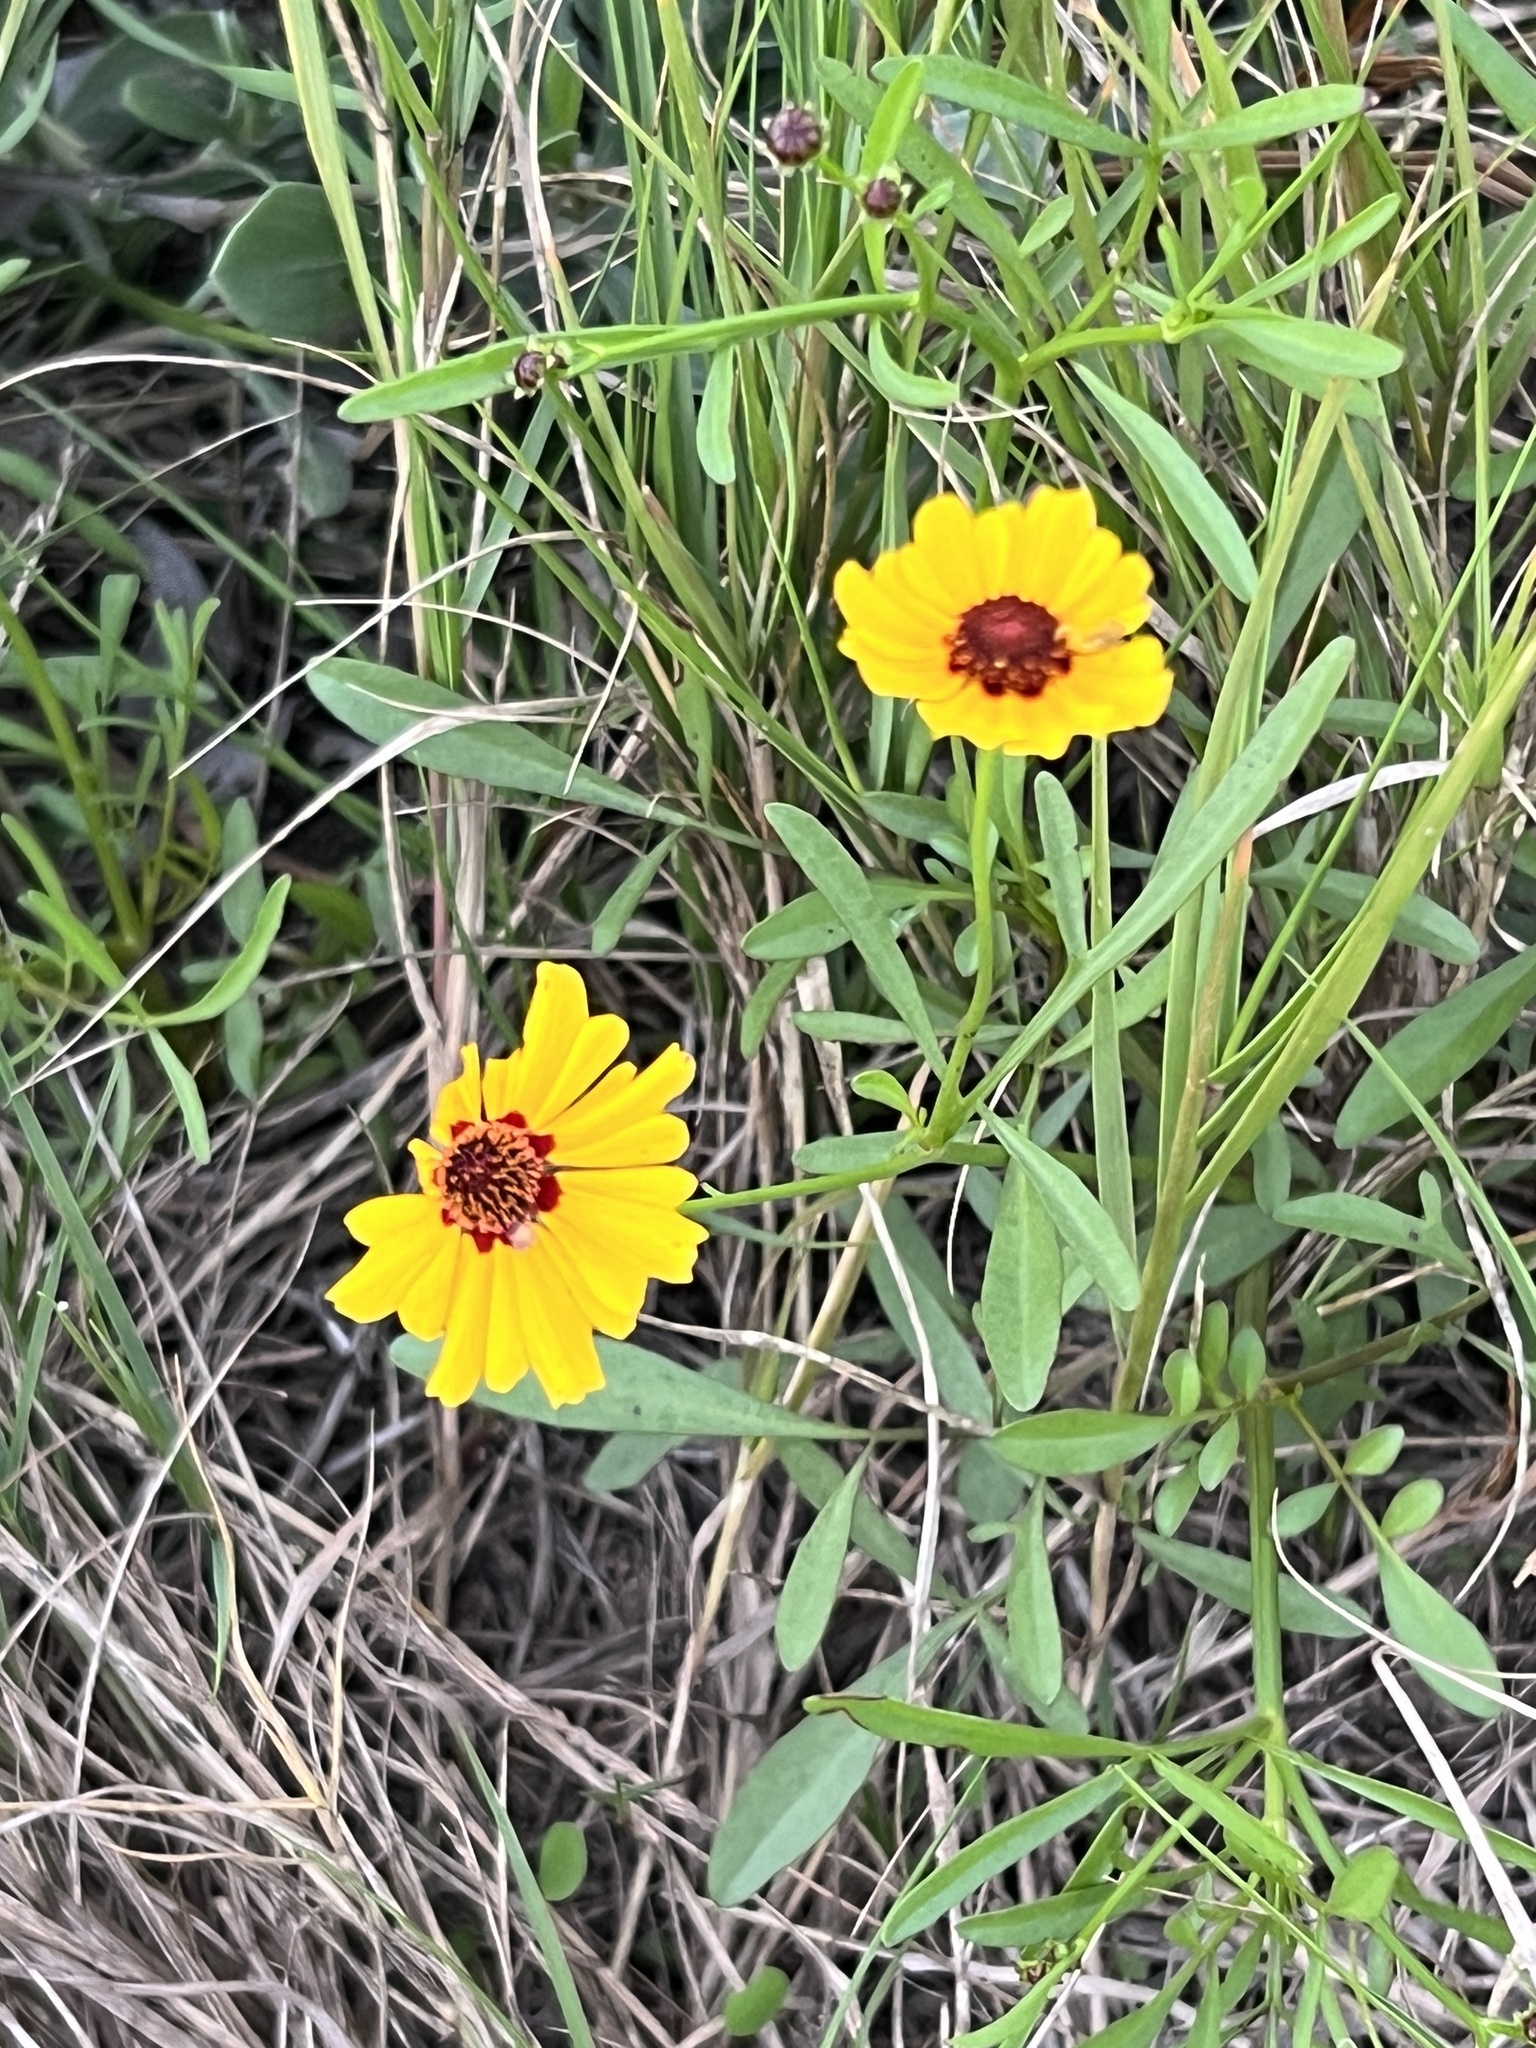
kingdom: Plantae
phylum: Tracheophyta
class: Magnoliopsida
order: Asterales
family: Asteraceae
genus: Coreopsis
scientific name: Coreopsis tinctoria
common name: Garden tickseed
